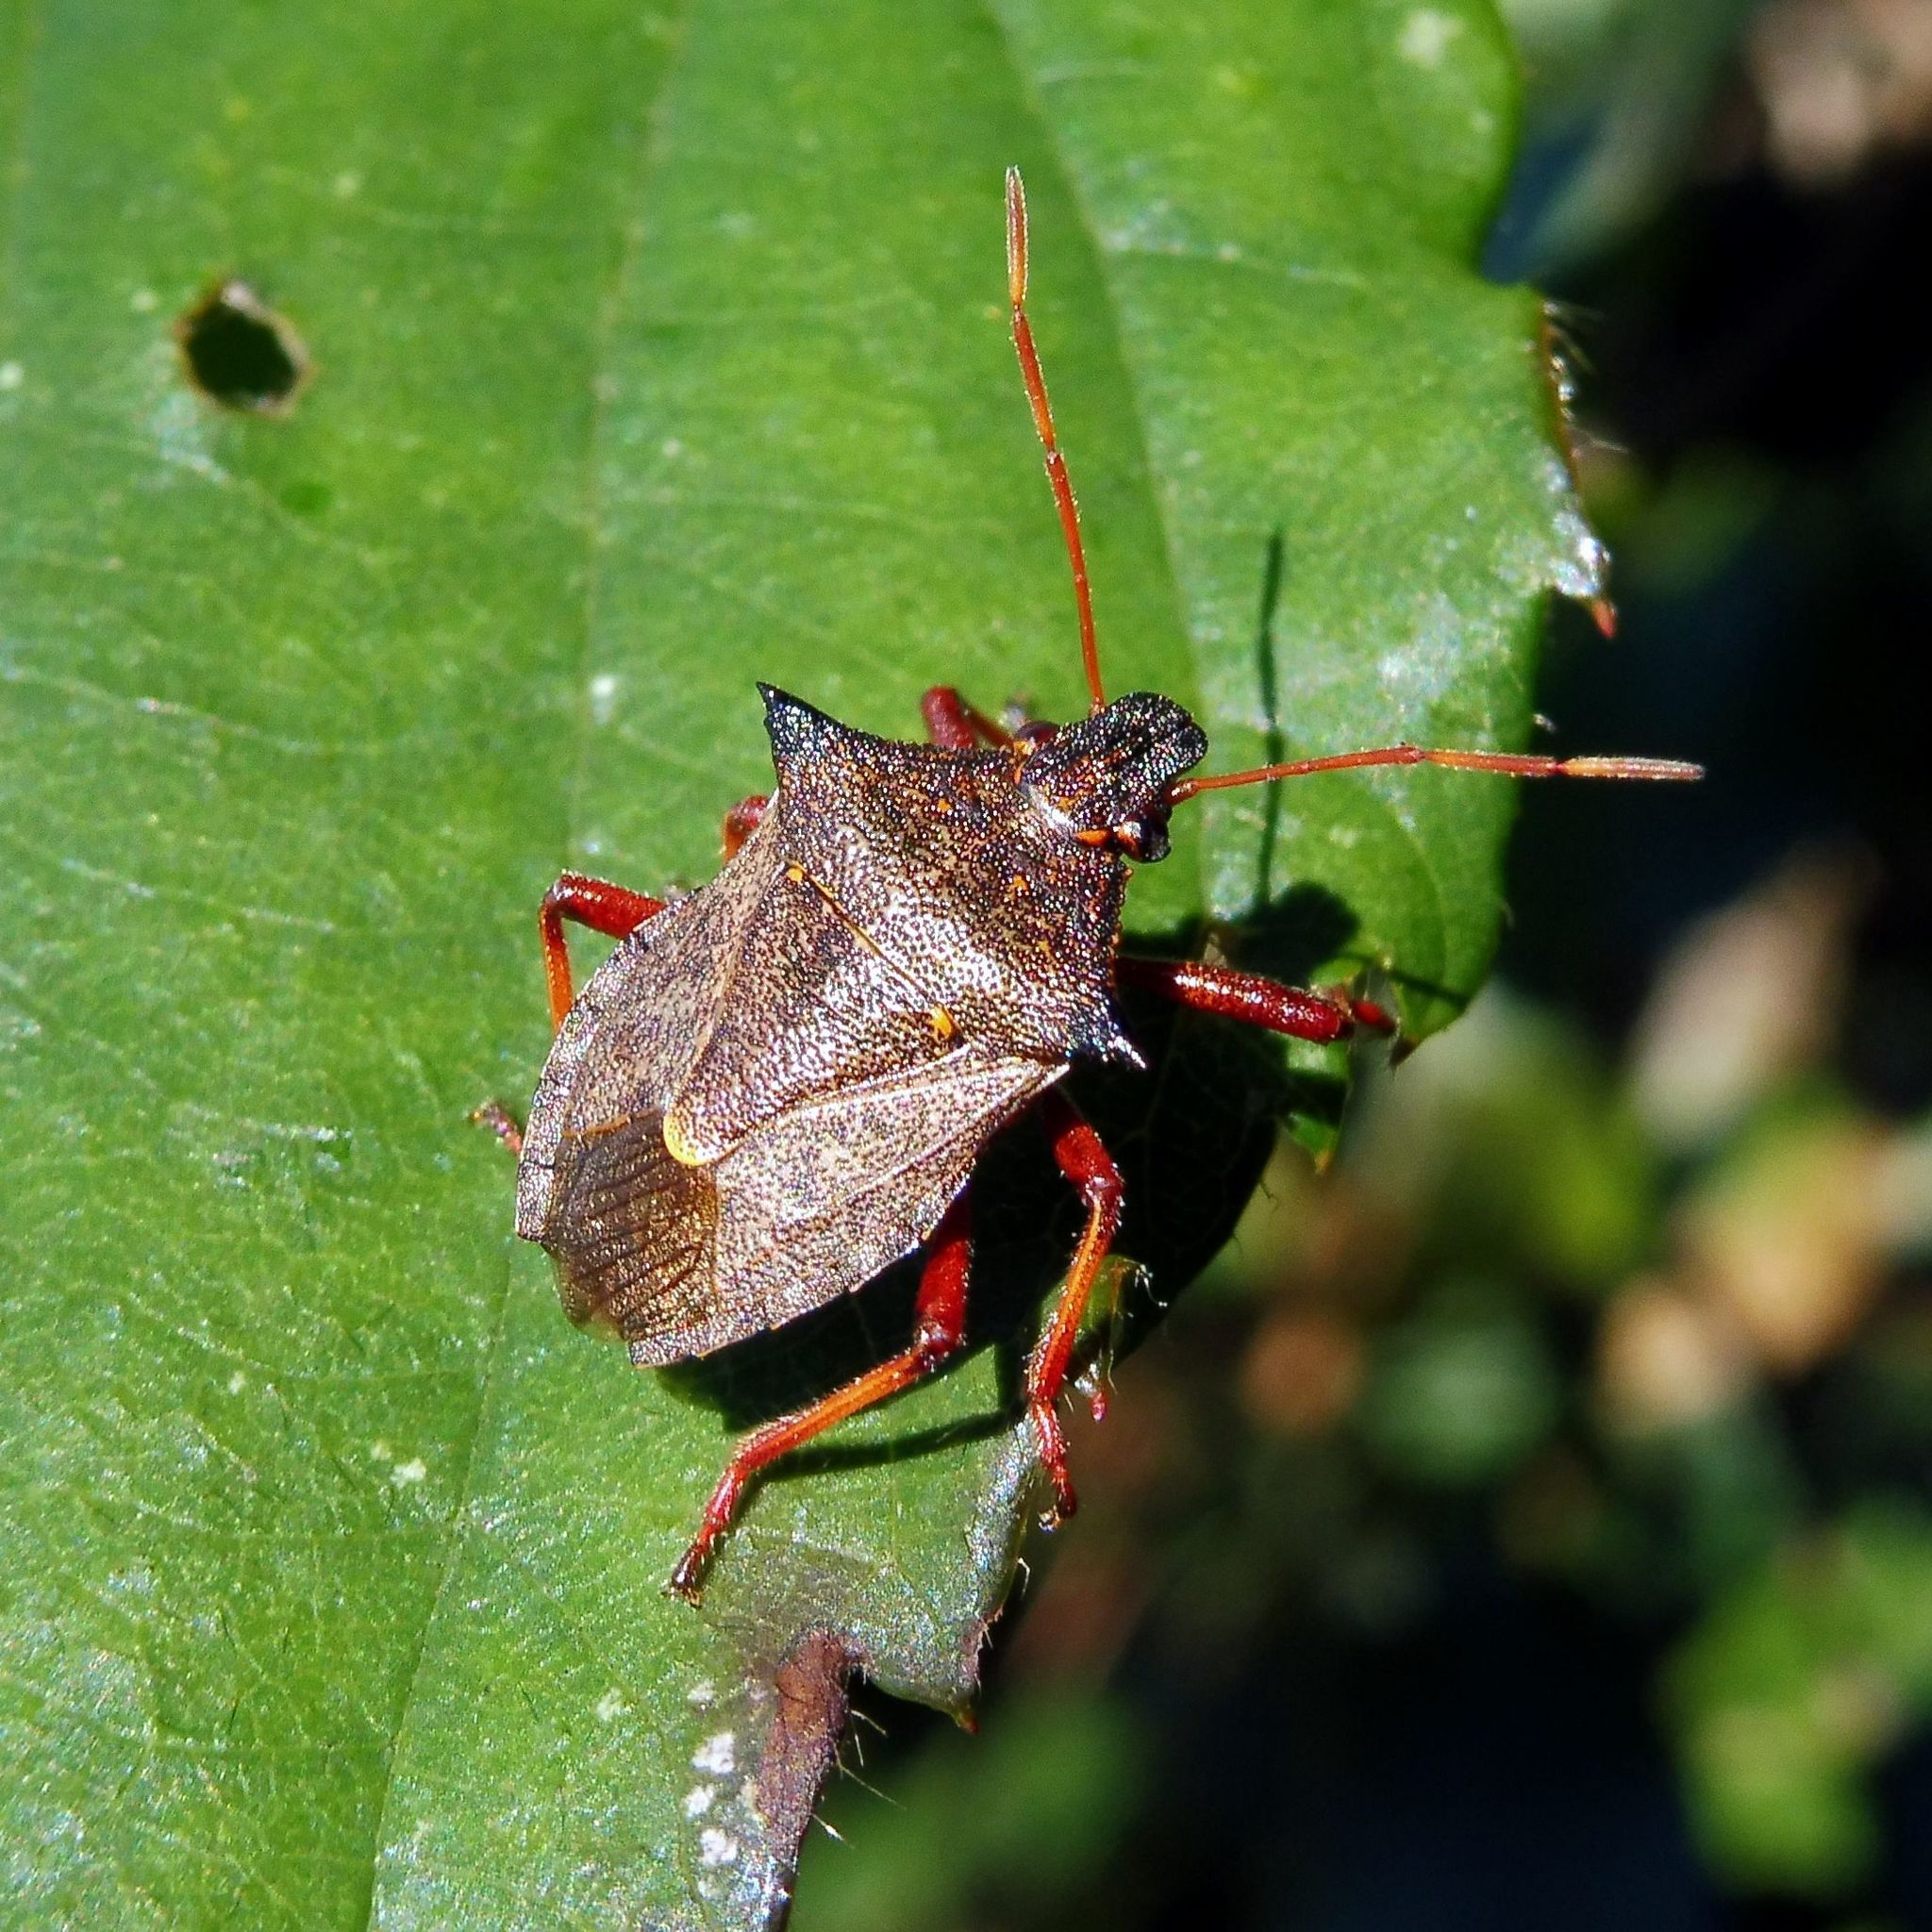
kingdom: Animalia
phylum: Arthropoda
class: Insecta
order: Hemiptera
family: Pentatomidae
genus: Picromerus
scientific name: Picromerus bidens
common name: Spiked shieldbug
